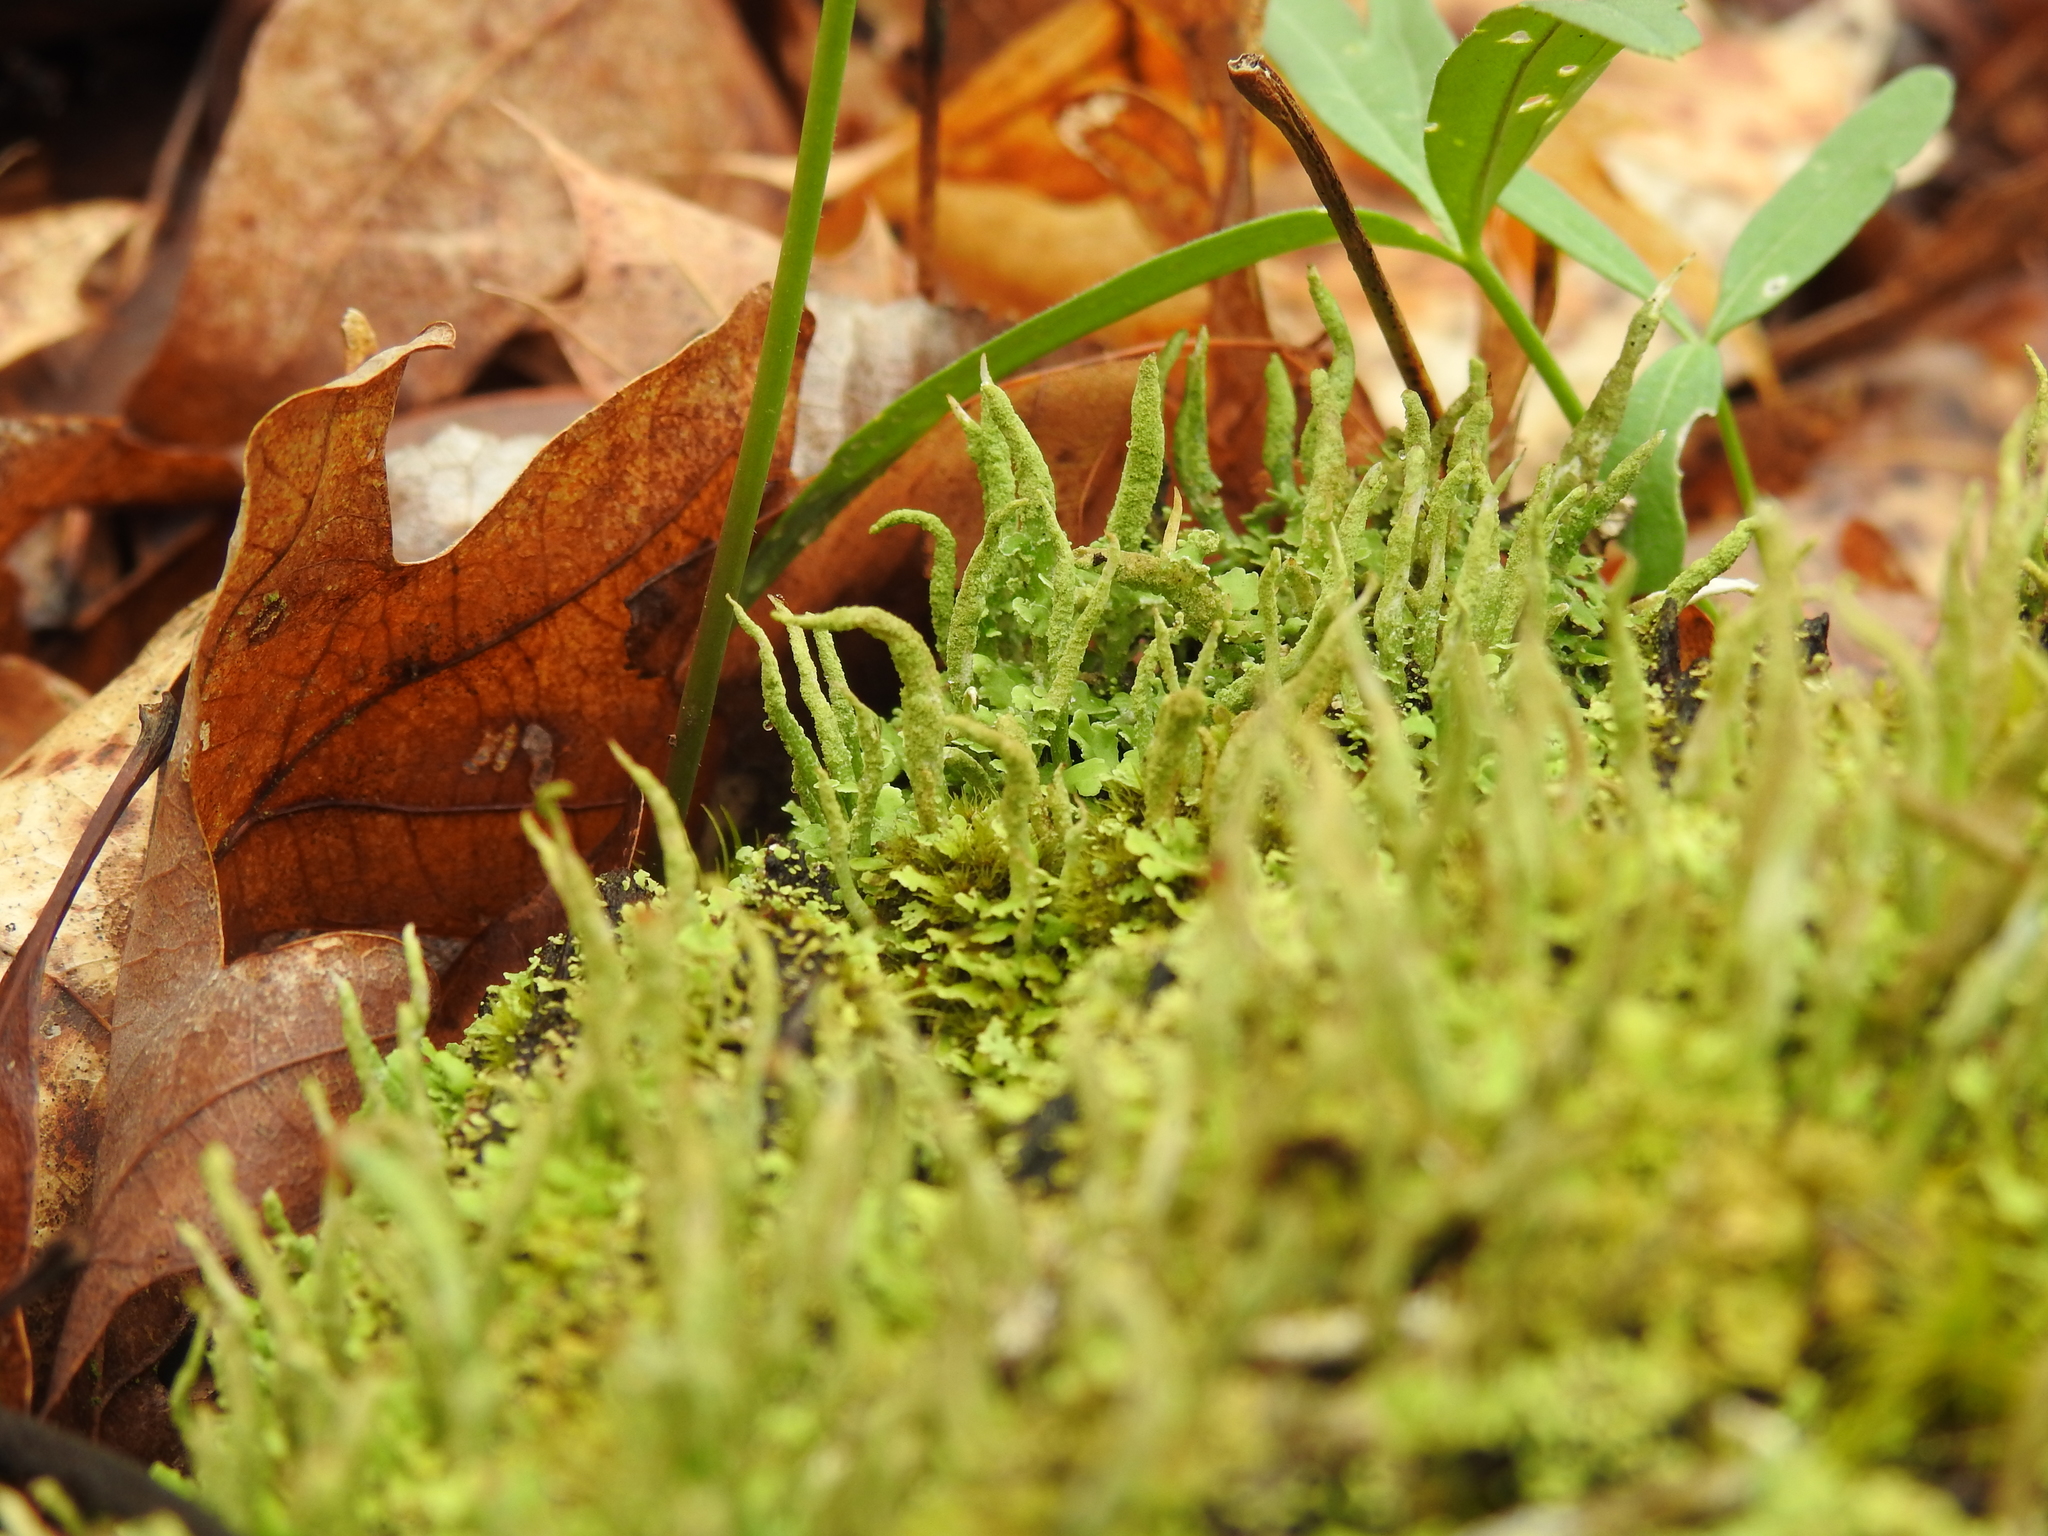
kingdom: Fungi
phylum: Ascomycota
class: Lecanoromycetes
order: Lecanorales
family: Cladoniaceae
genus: Cladonia
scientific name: Cladonia coniocraea
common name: Common powderhorn
